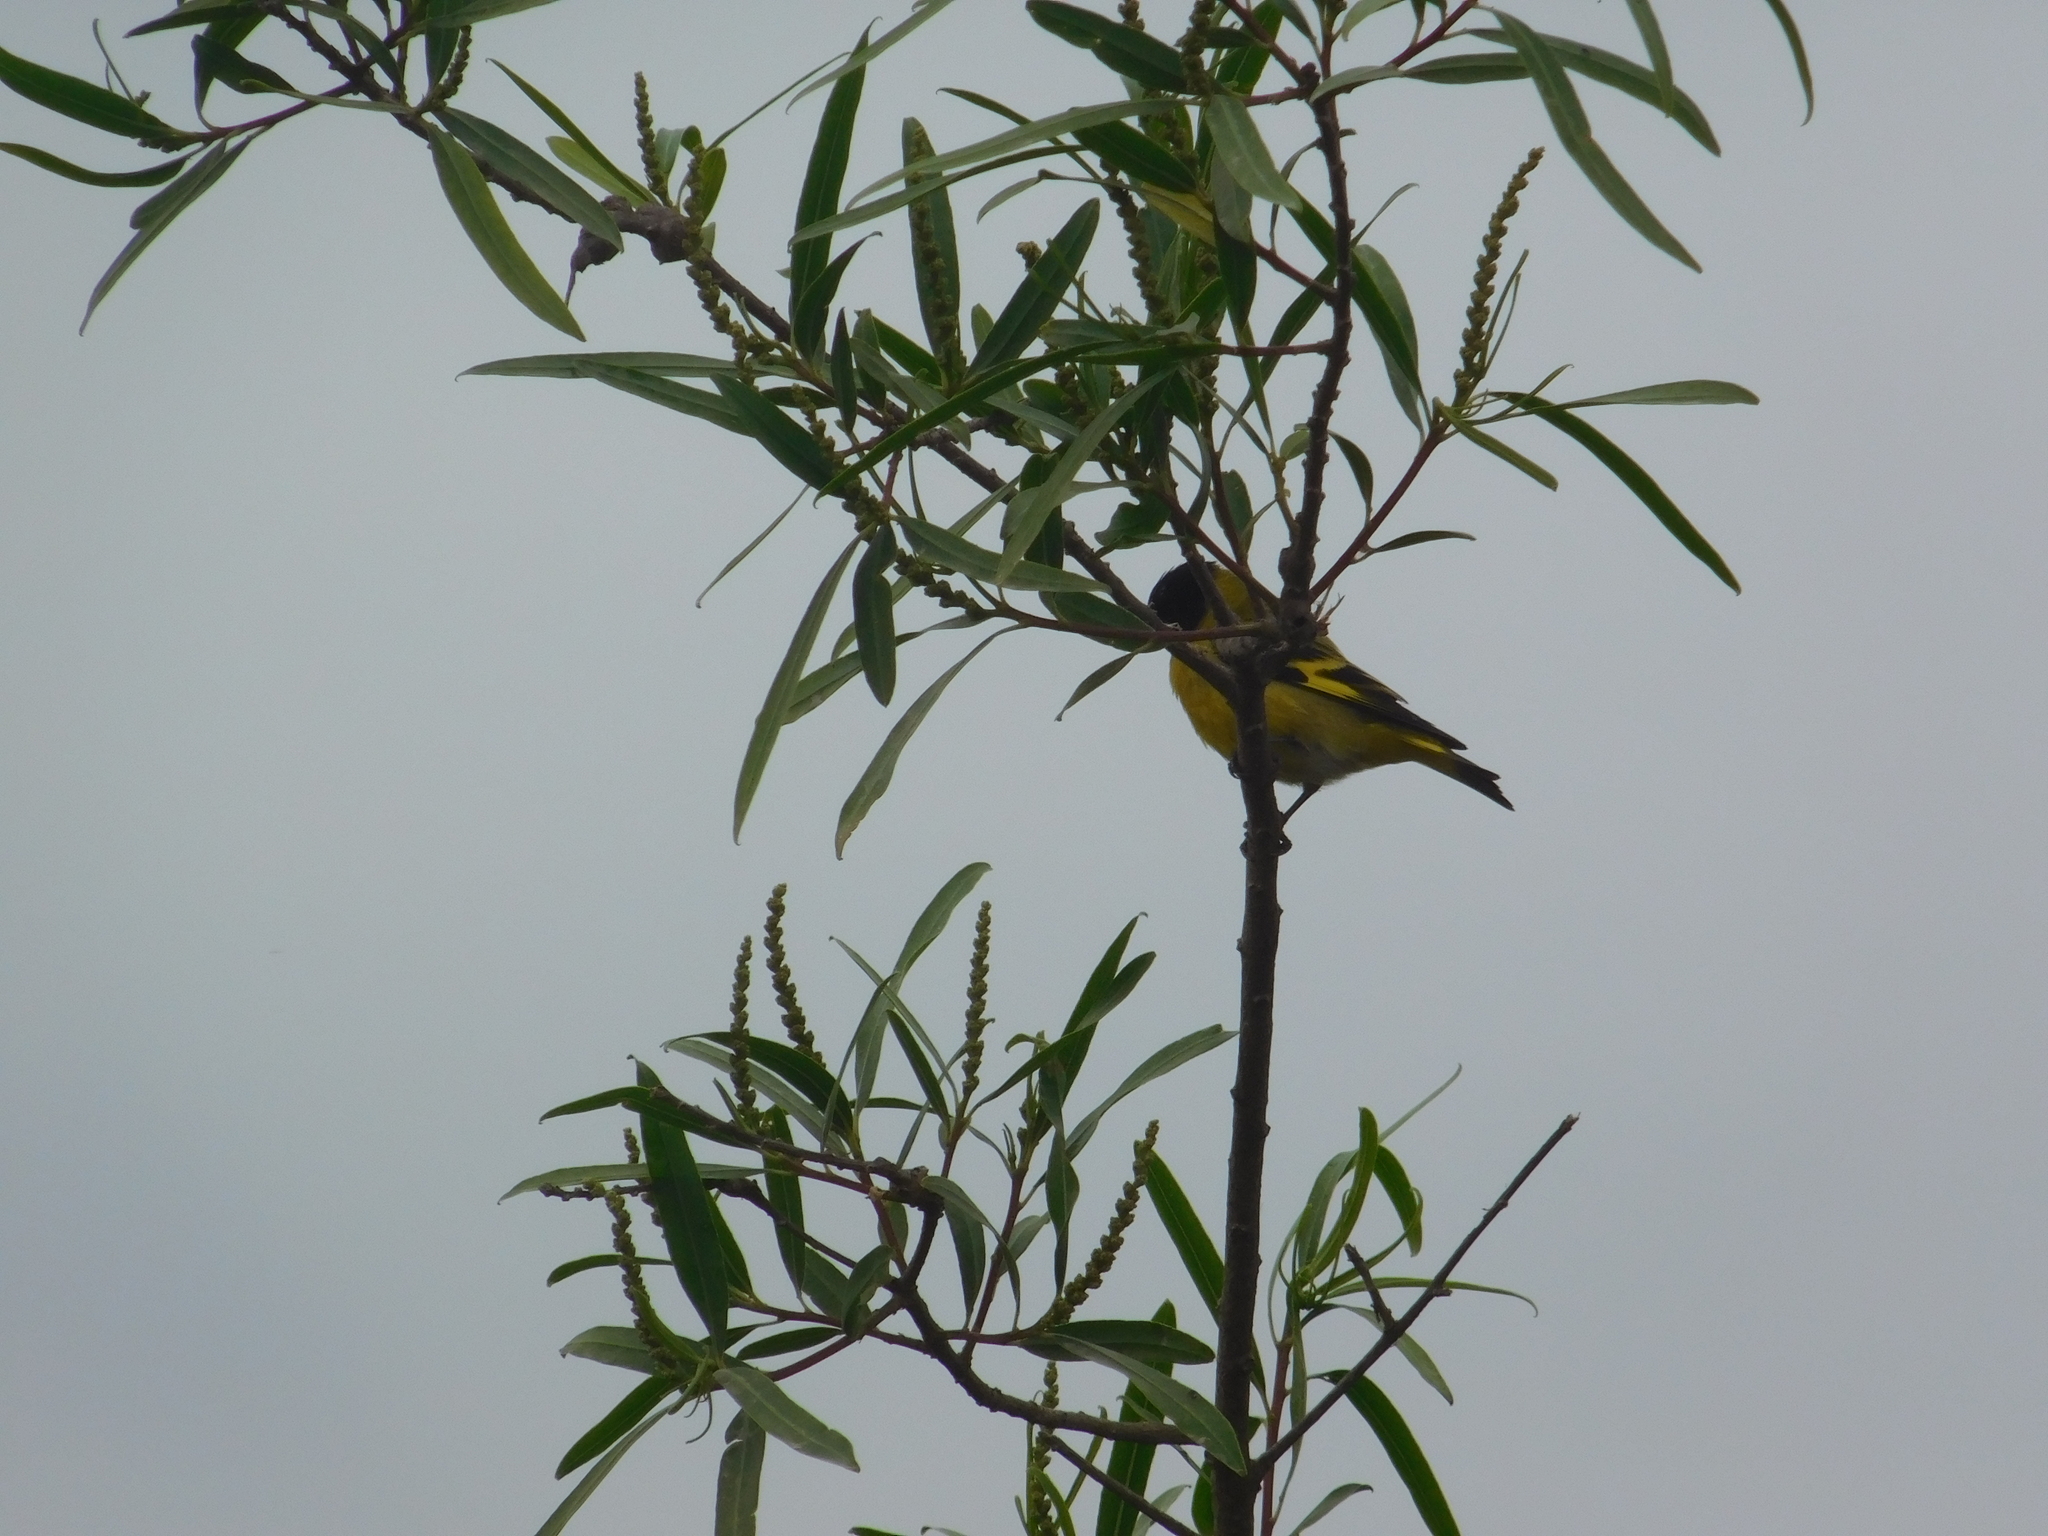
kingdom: Animalia
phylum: Chordata
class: Aves
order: Passeriformes
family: Fringillidae
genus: Spinus
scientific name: Spinus magellanicus
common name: Hooded siskin
